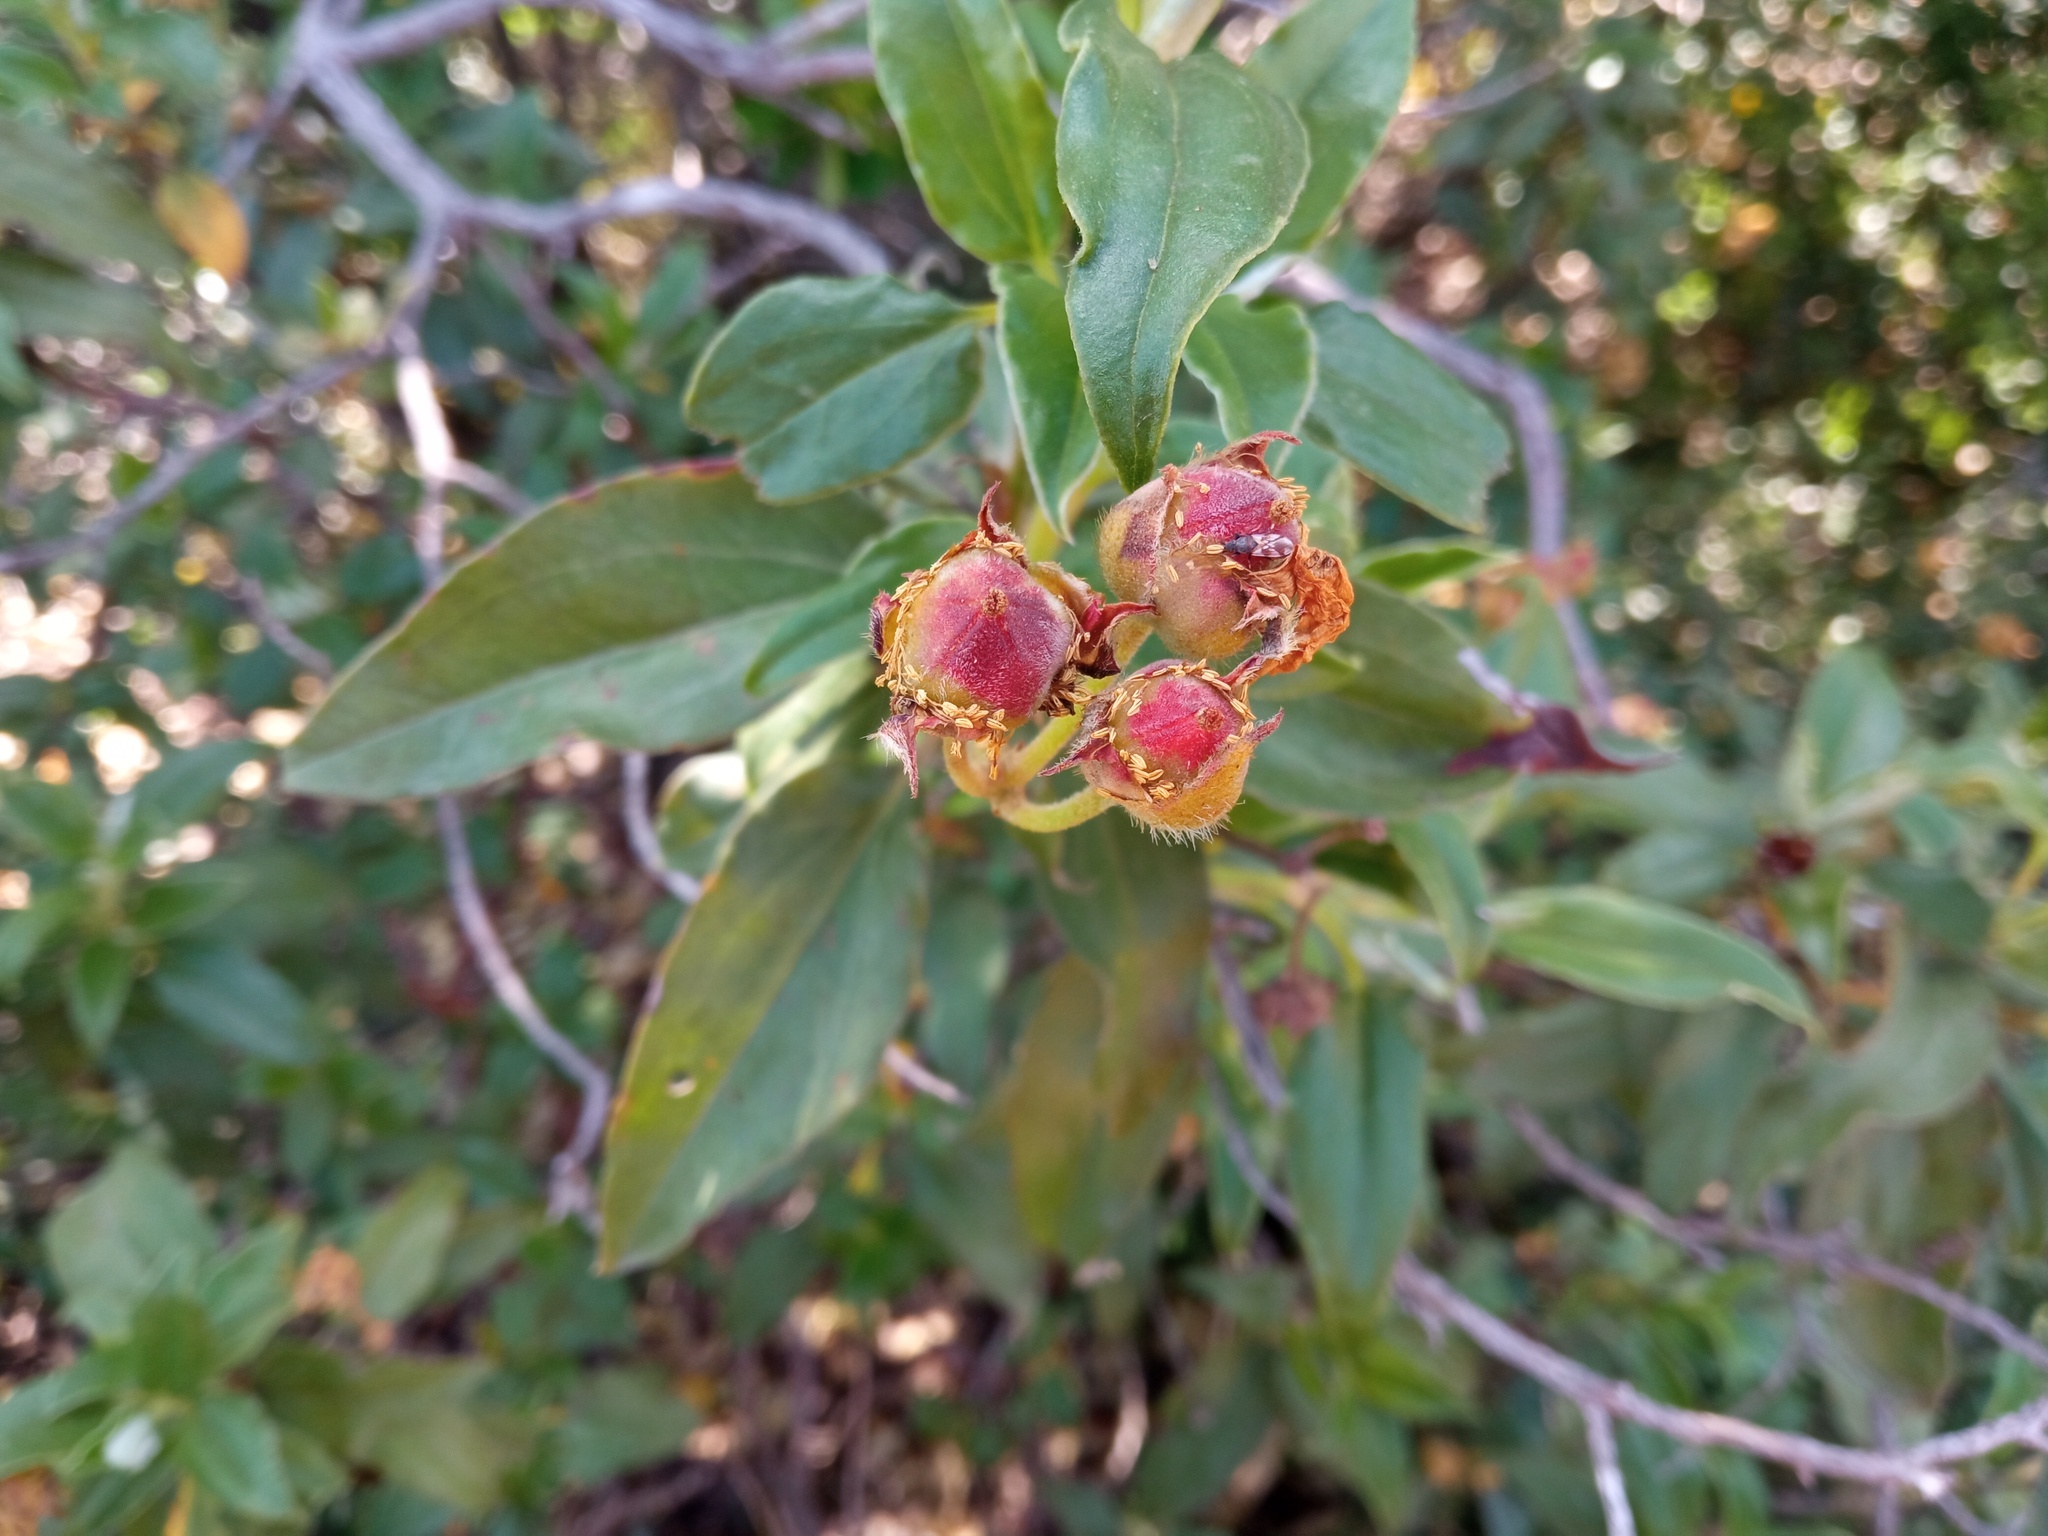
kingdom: Plantae
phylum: Tracheophyta
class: Magnoliopsida
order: Malvales
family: Cistaceae
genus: Cistus
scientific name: Cistus laurifolius
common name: Laurel-leaved cistus
